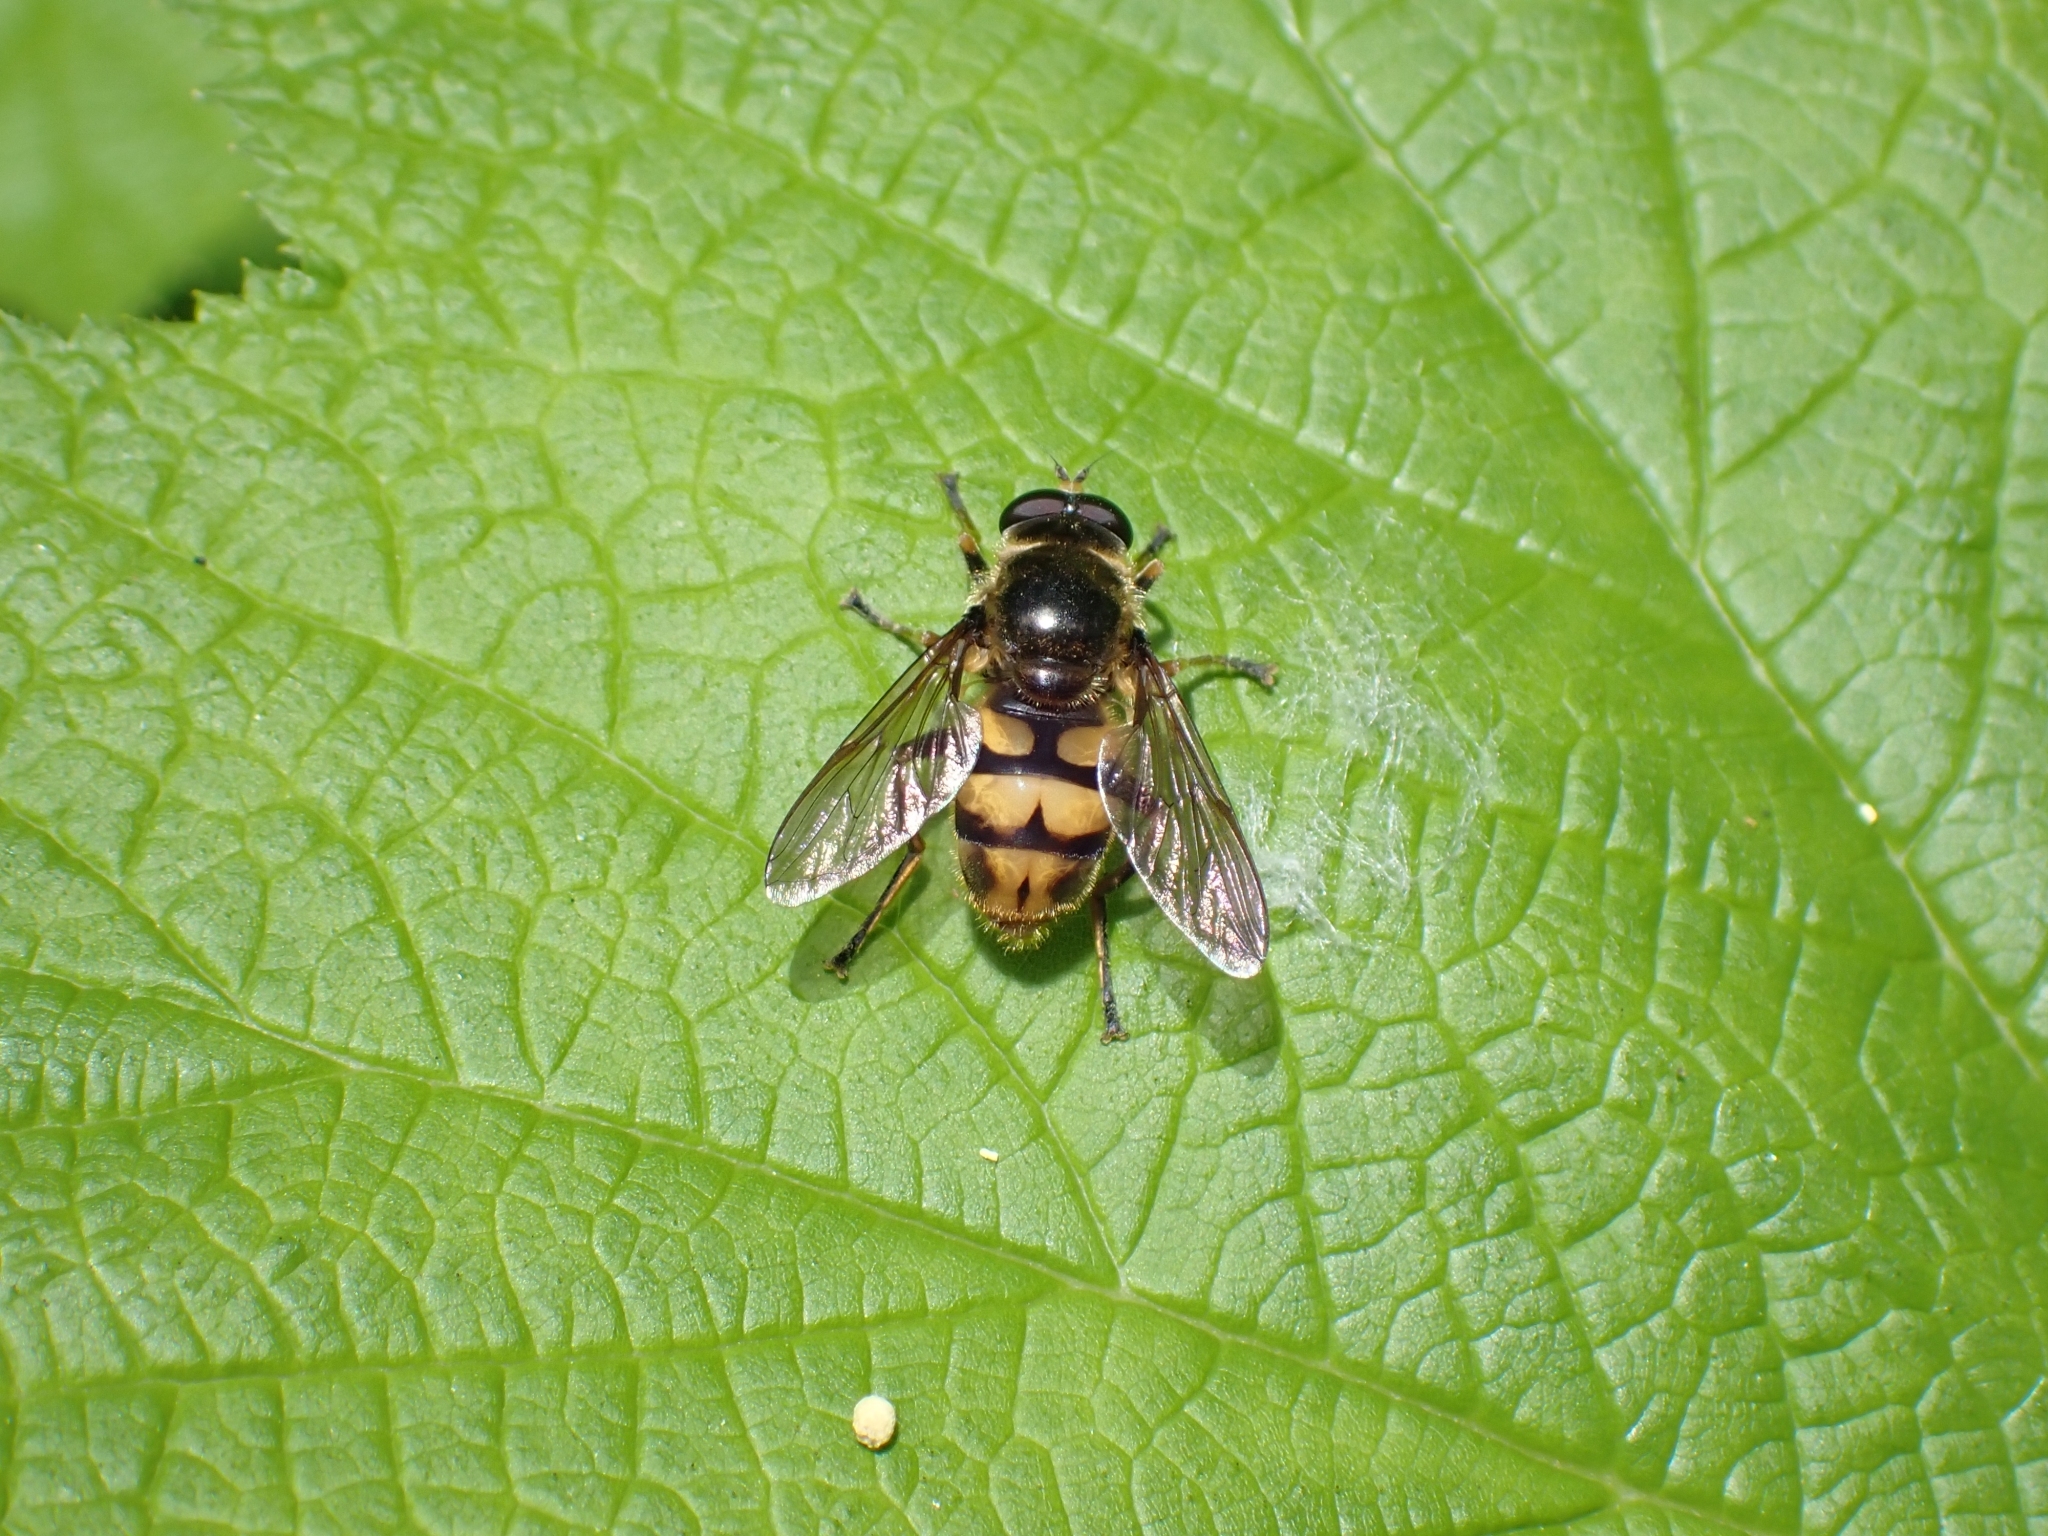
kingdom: Animalia
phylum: Arthropoda
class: Insecta
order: Diptera
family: Syrphidae
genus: Blera
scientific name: Blera scitula
